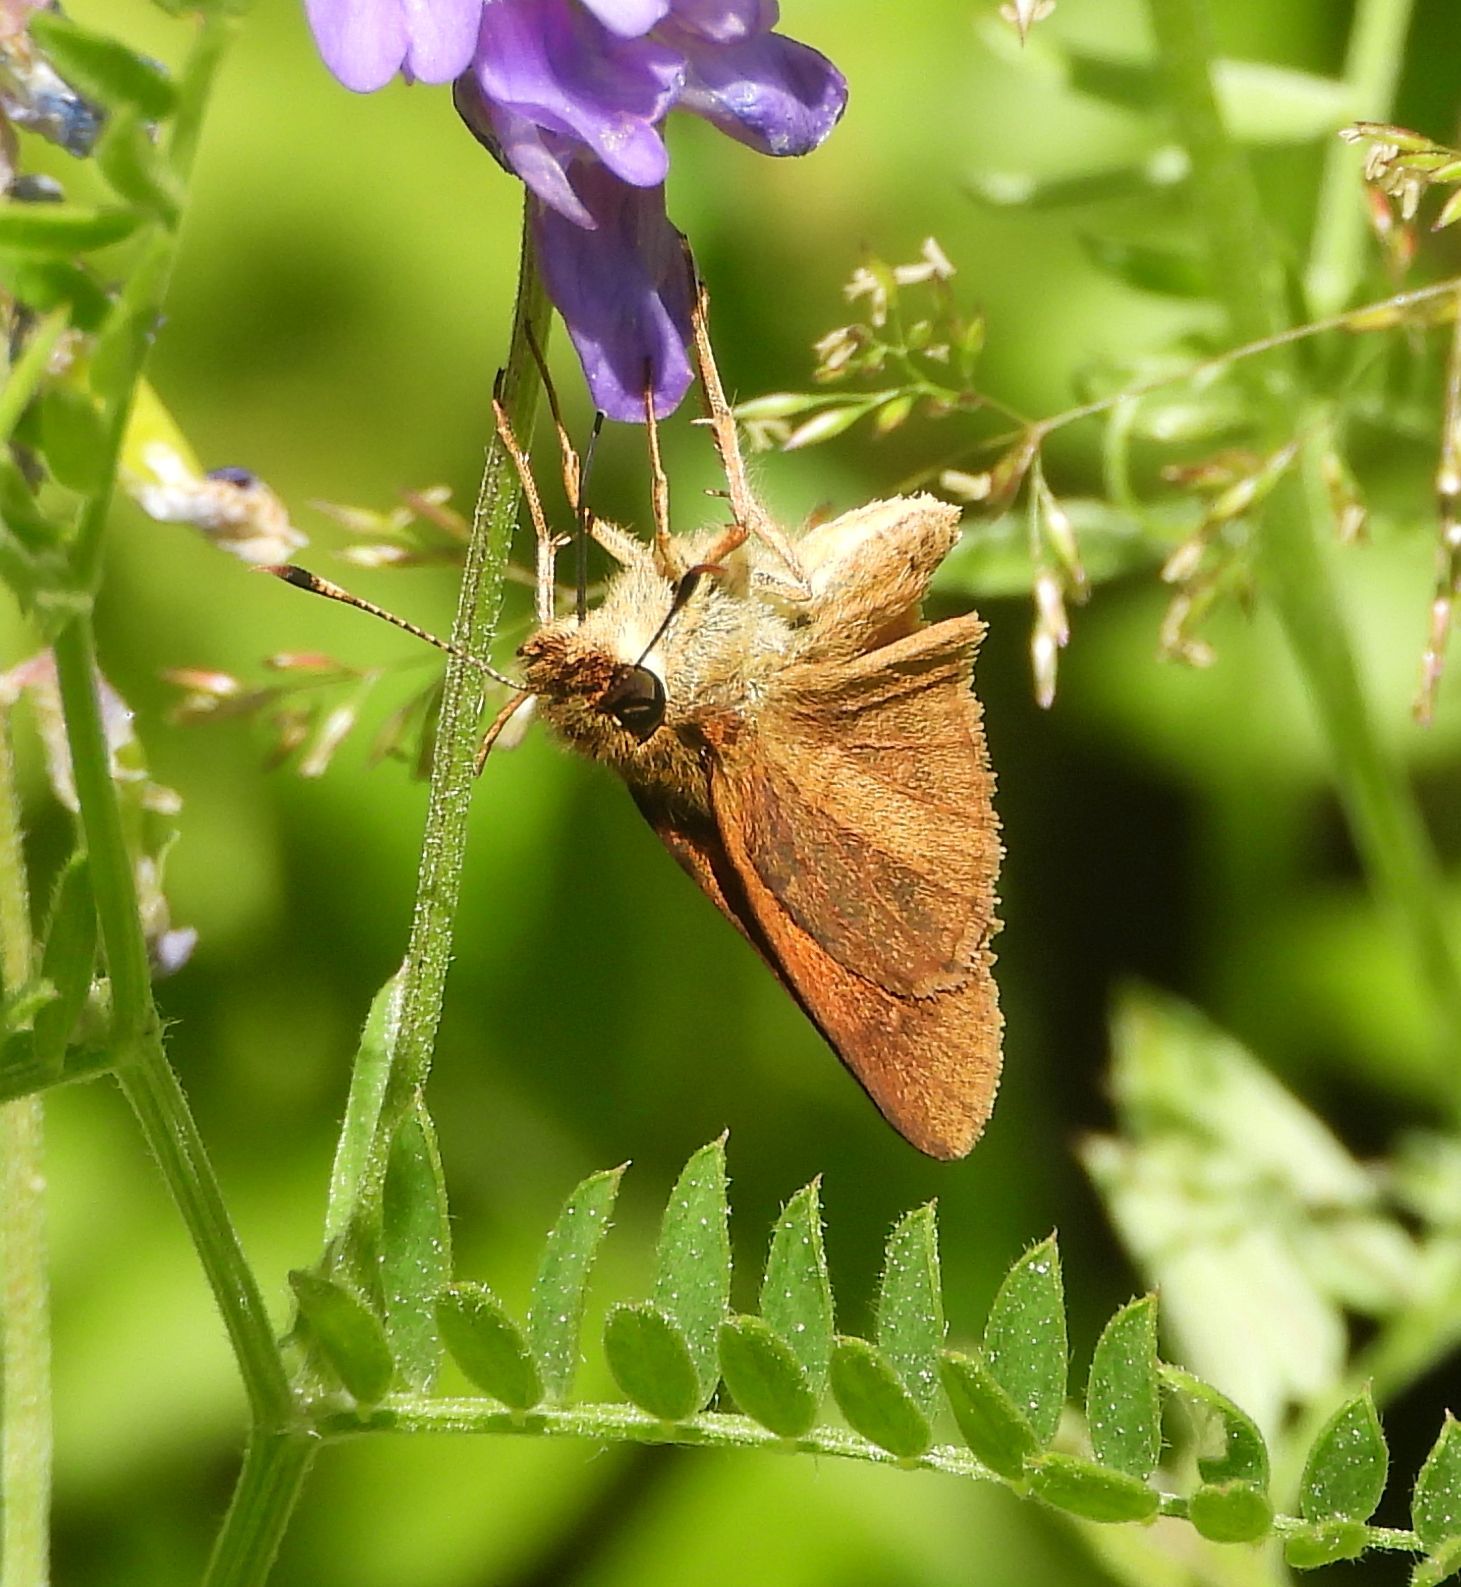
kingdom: Animalia
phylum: Arthropoda
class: Insecta
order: Lepidoptera
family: Hesperiidae
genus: Poanes
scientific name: Poanes viator
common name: Broad-winged skipper
